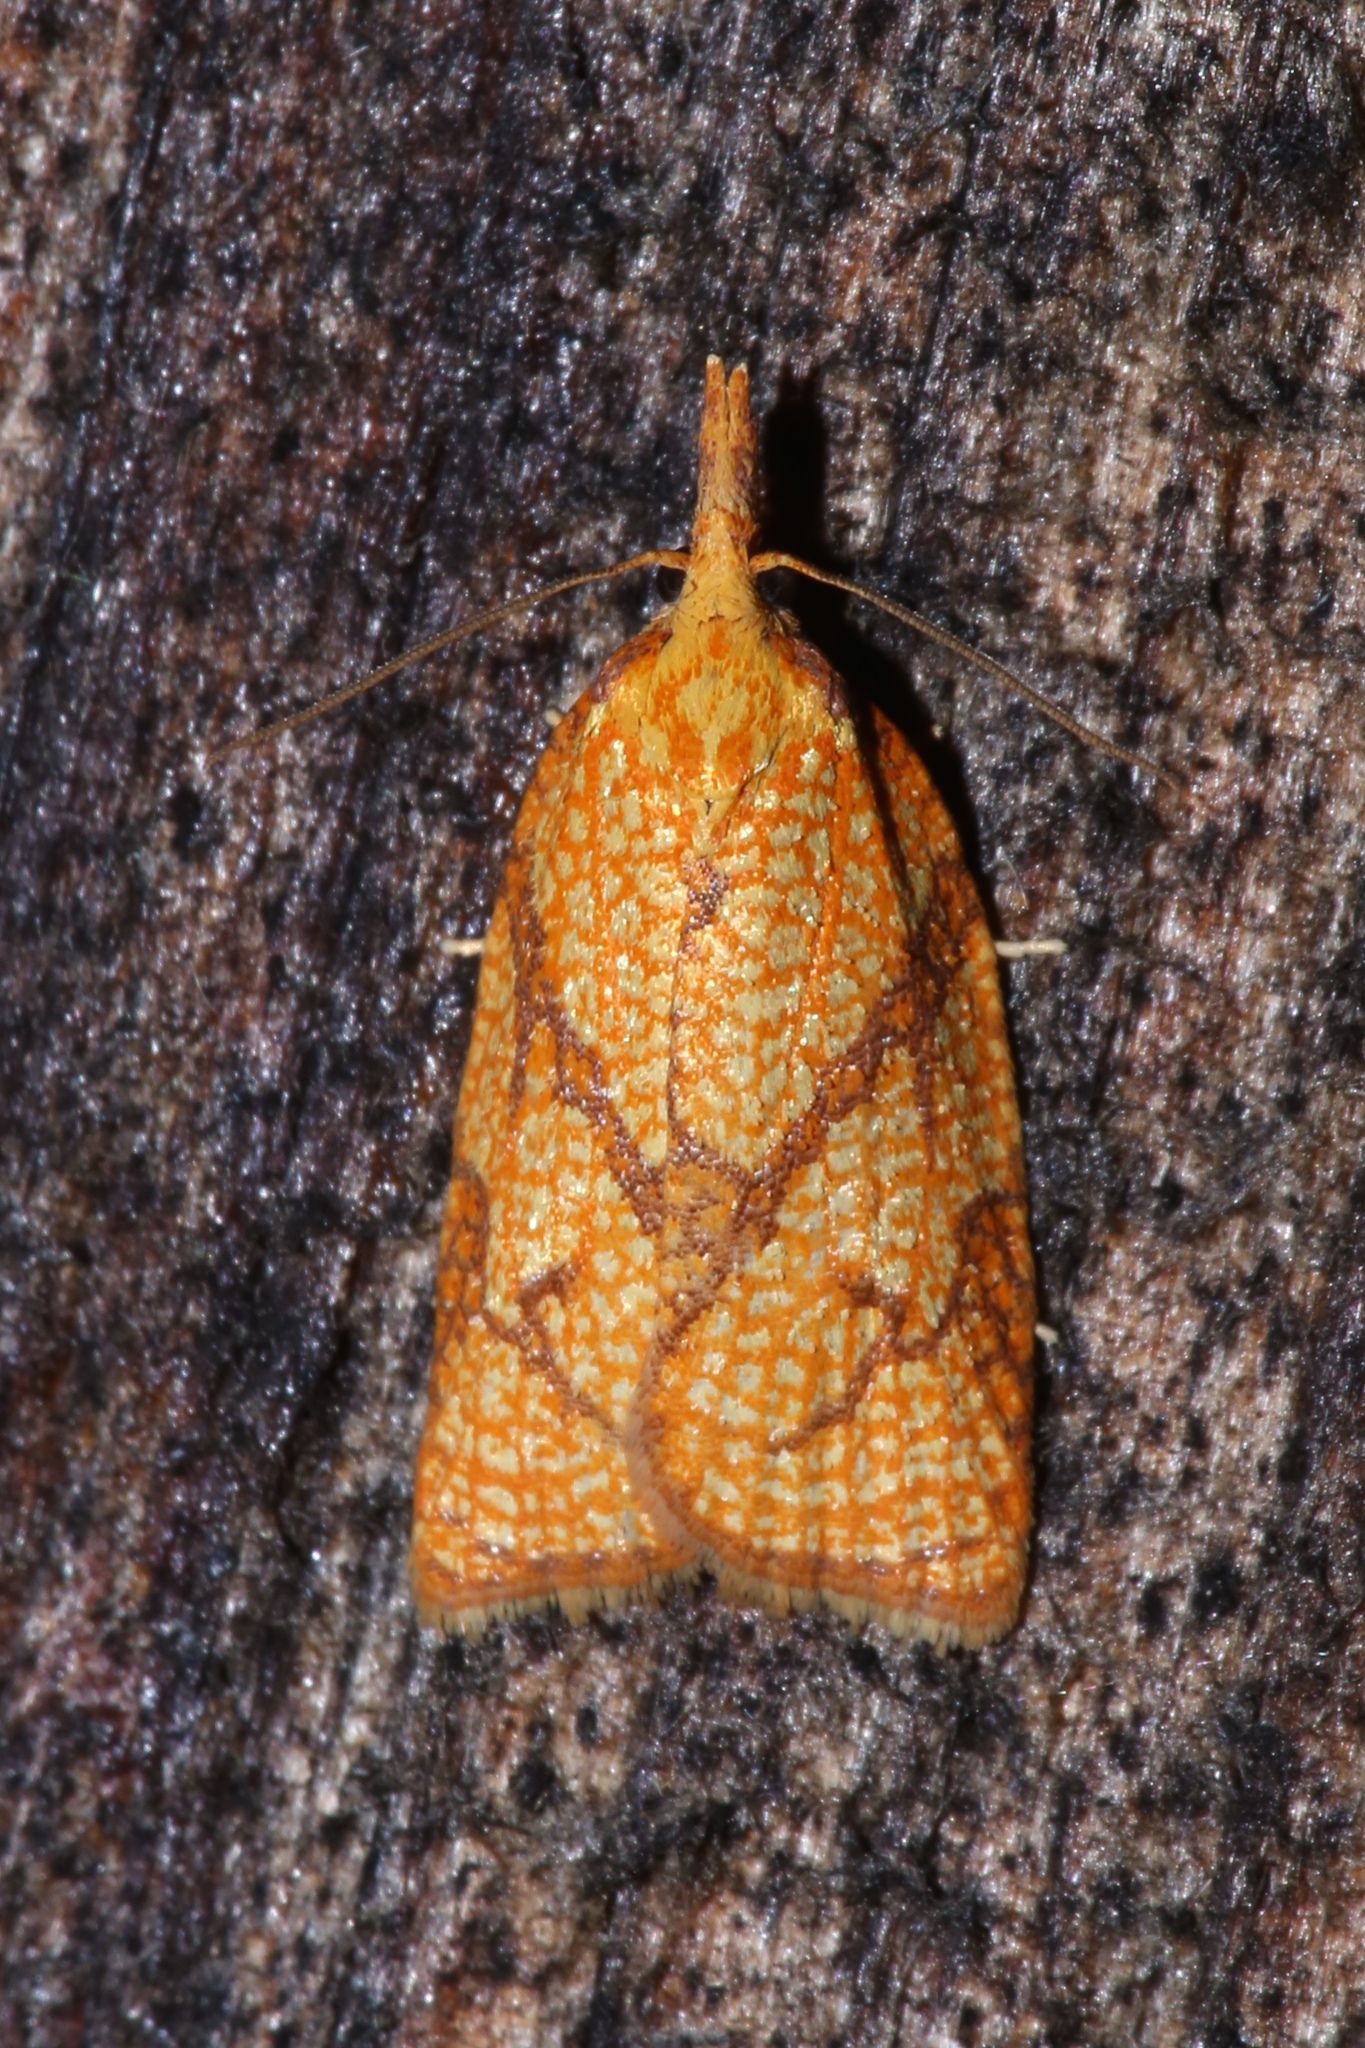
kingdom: Animalia
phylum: Arthropoda
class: Insecta
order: Lepidoptera
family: Tortricidae
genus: Cenopis
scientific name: Cenopis reticulatana
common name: Reticulated fruitworm moth
